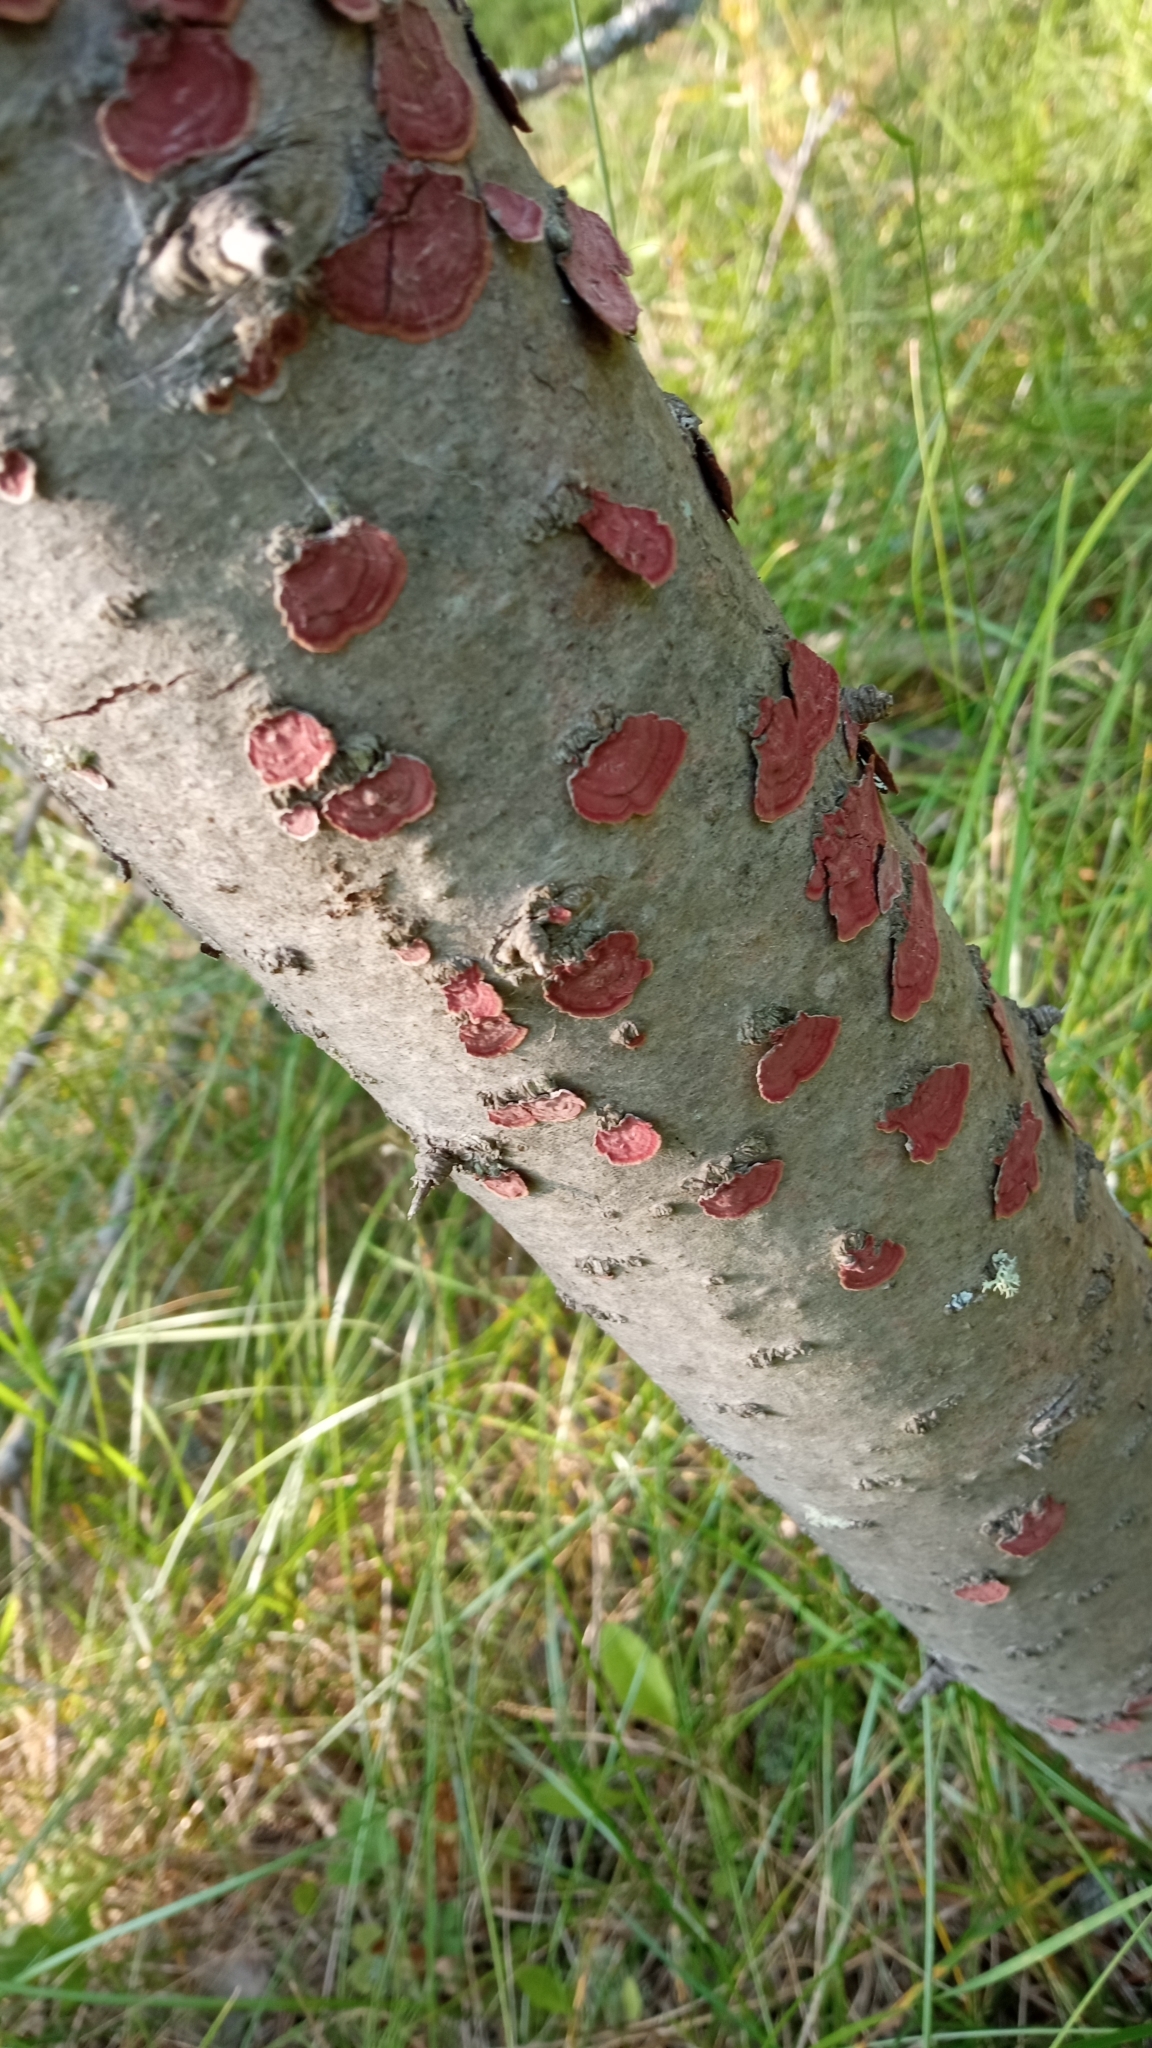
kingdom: Fungi
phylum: Basidiomycota
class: Agaricomycetes
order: Hymenochaetales
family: Hymenochaetaceae
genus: Hymenochaete
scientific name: Hymenochaete cruenta
